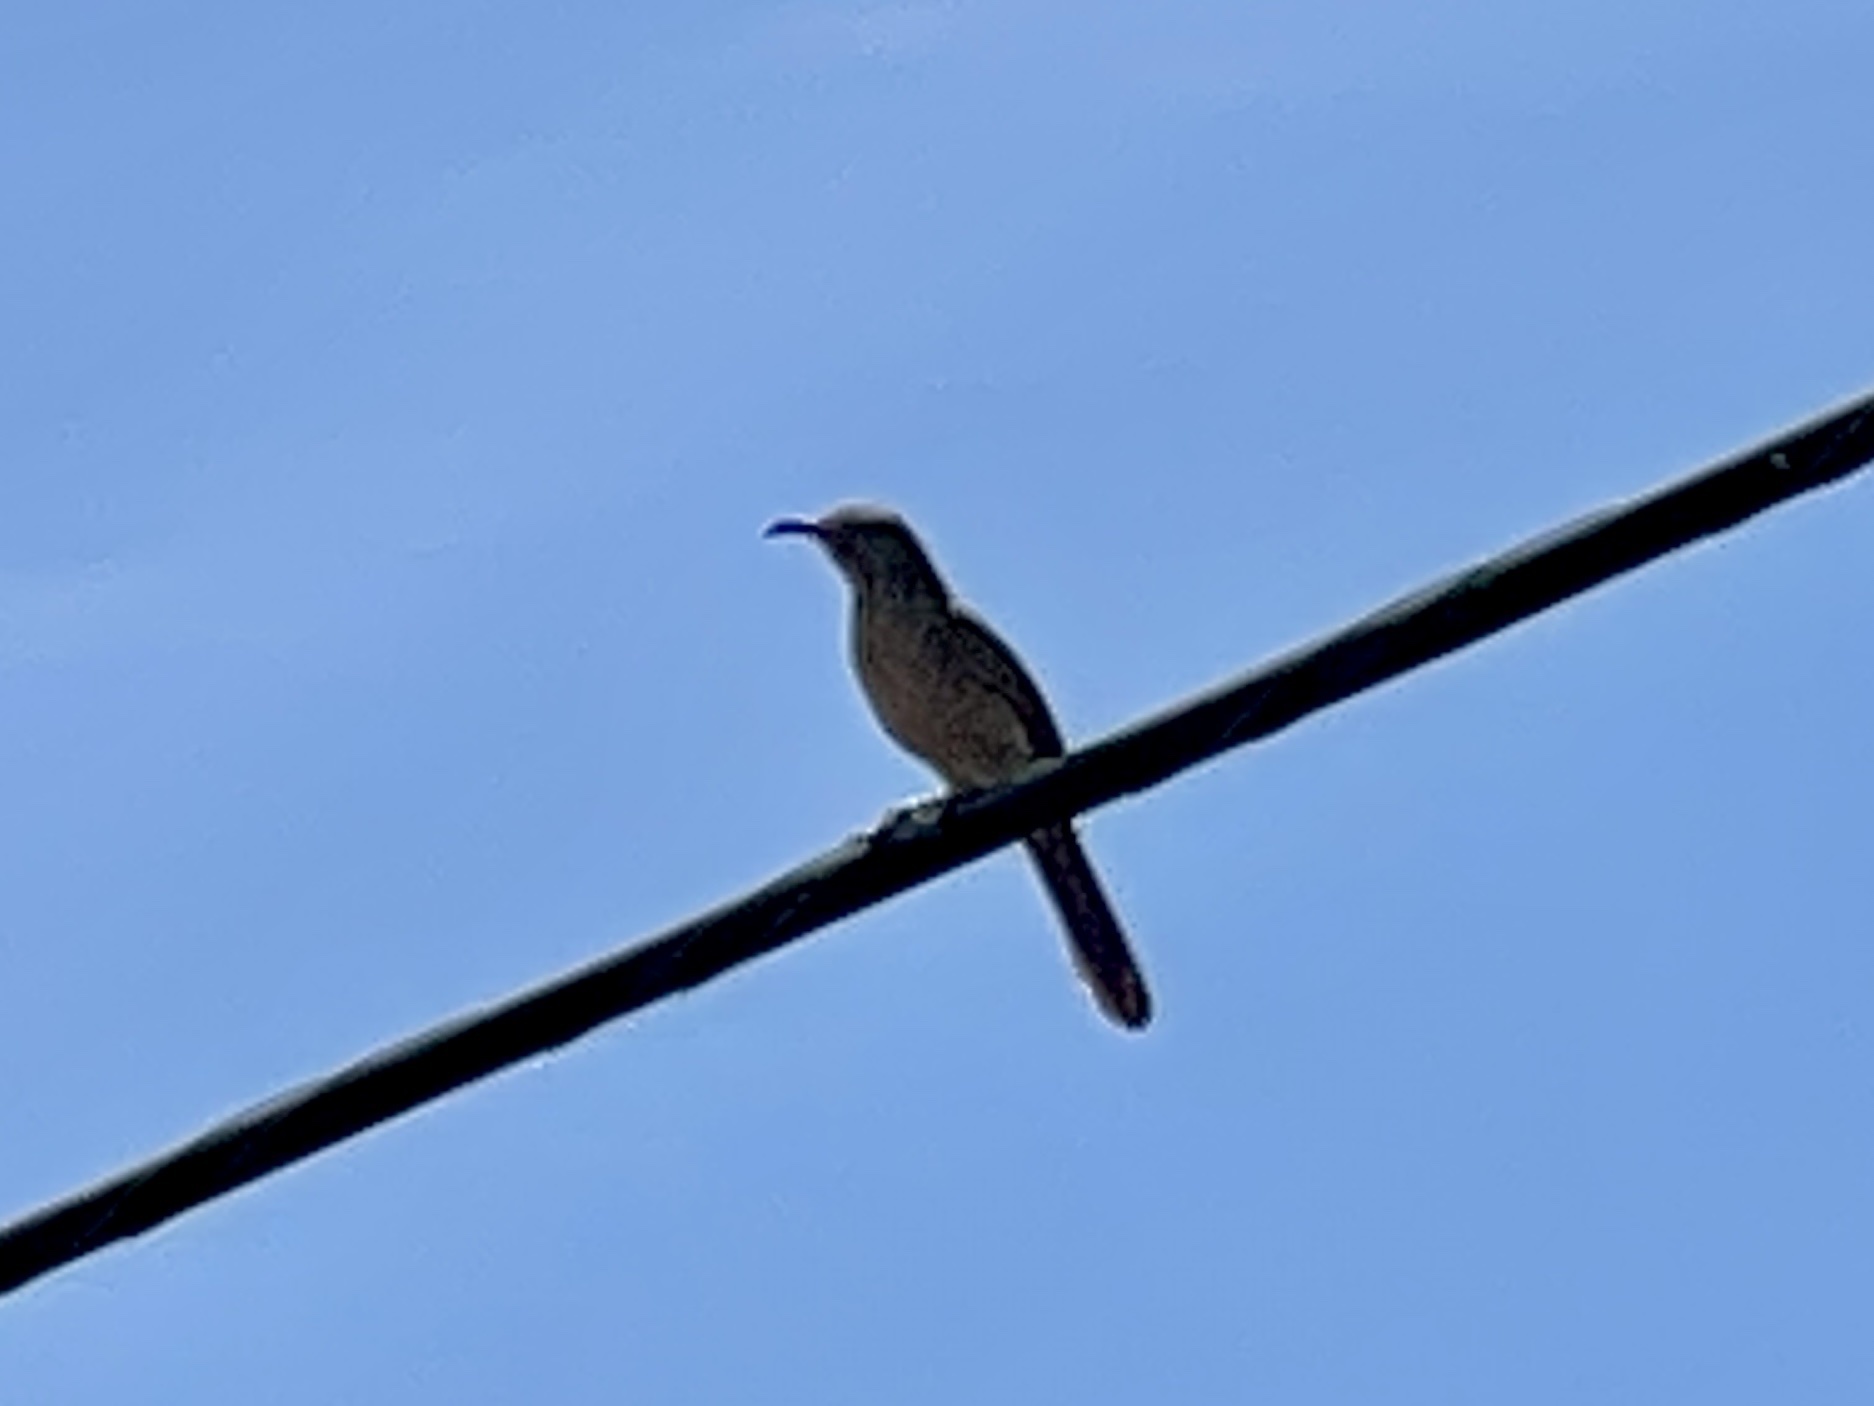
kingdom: Animalia
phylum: Chordata
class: Aves
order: Passeriformes
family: Mimidae
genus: Toxostoma
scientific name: Toxostoma curvirostre
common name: Curve-billed thrasher
